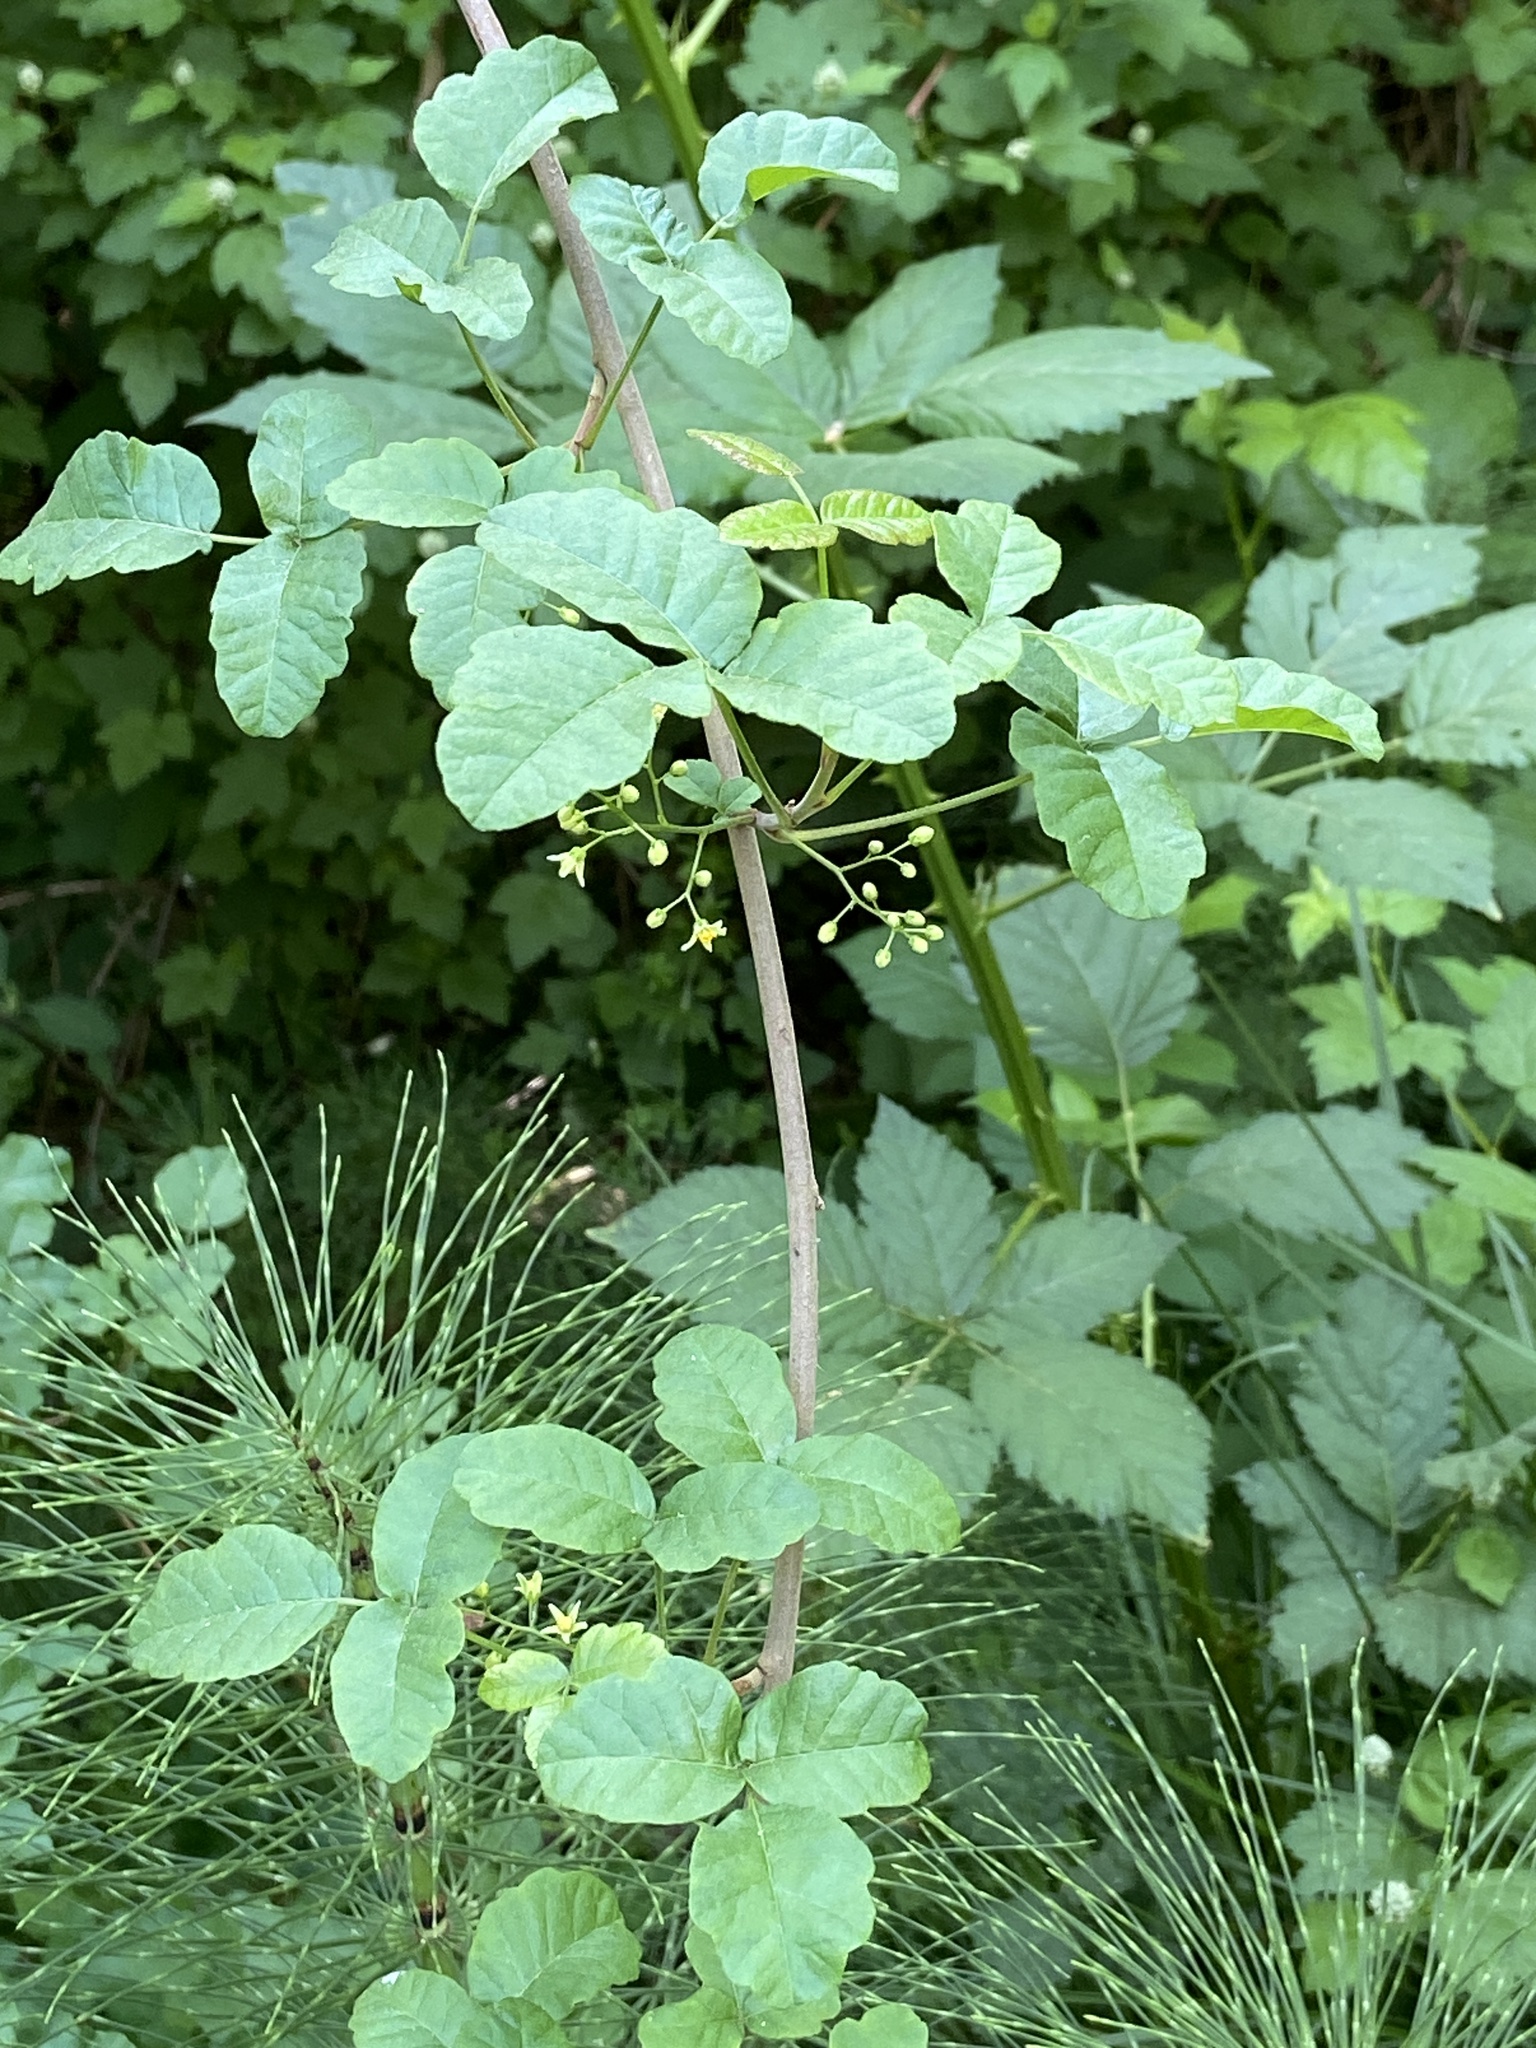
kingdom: Plantae
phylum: Tracheophyta
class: Magnoliopsida
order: Sapindales
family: Anacardiaceae
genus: Toxicodendron
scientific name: Toxicodendron diversilobum
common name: Pacific poison-oak
